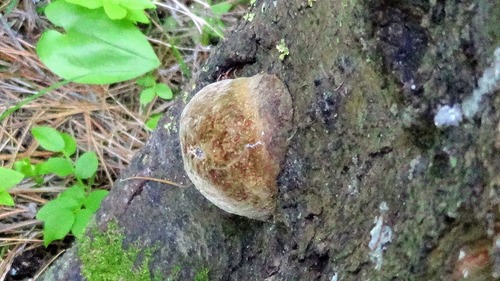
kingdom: Fungi
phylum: Basidiomycota
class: Agaricomycetes
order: Hymenochaetales
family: Hymenochaetaceae
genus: Phellinus
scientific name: Phellinus hartigii
